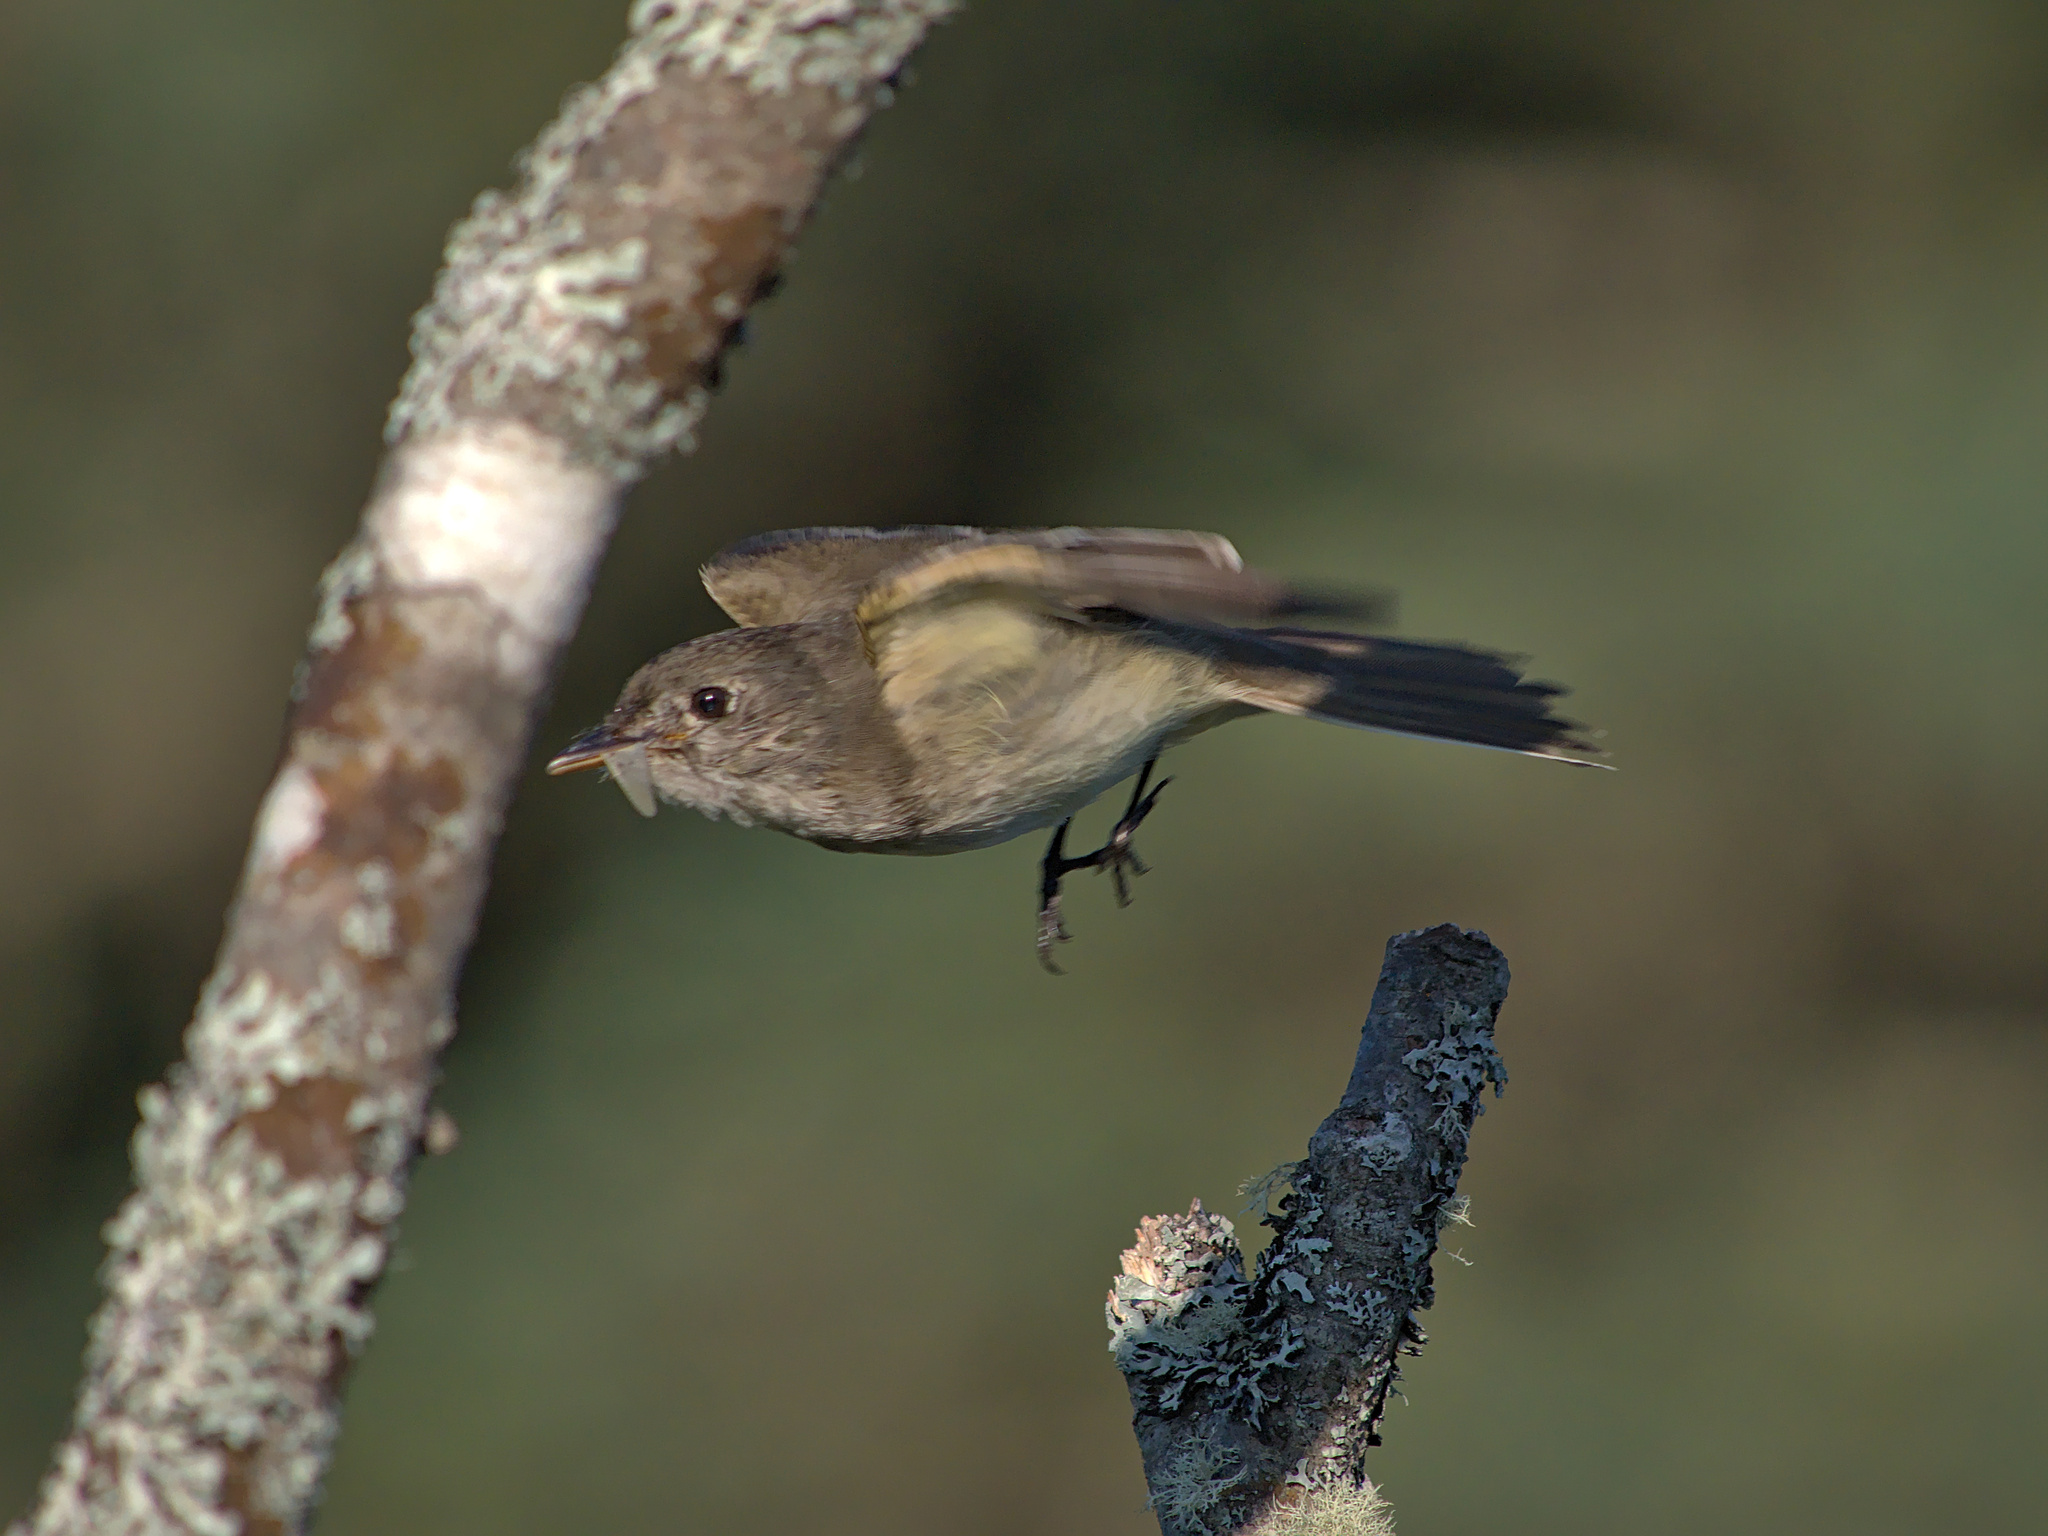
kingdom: Animalia
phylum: Chordata
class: Aves
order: Passeriformes
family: Tyrannidae
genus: Empidonax
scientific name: Empidonax alnorum
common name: Alder flycatcher
